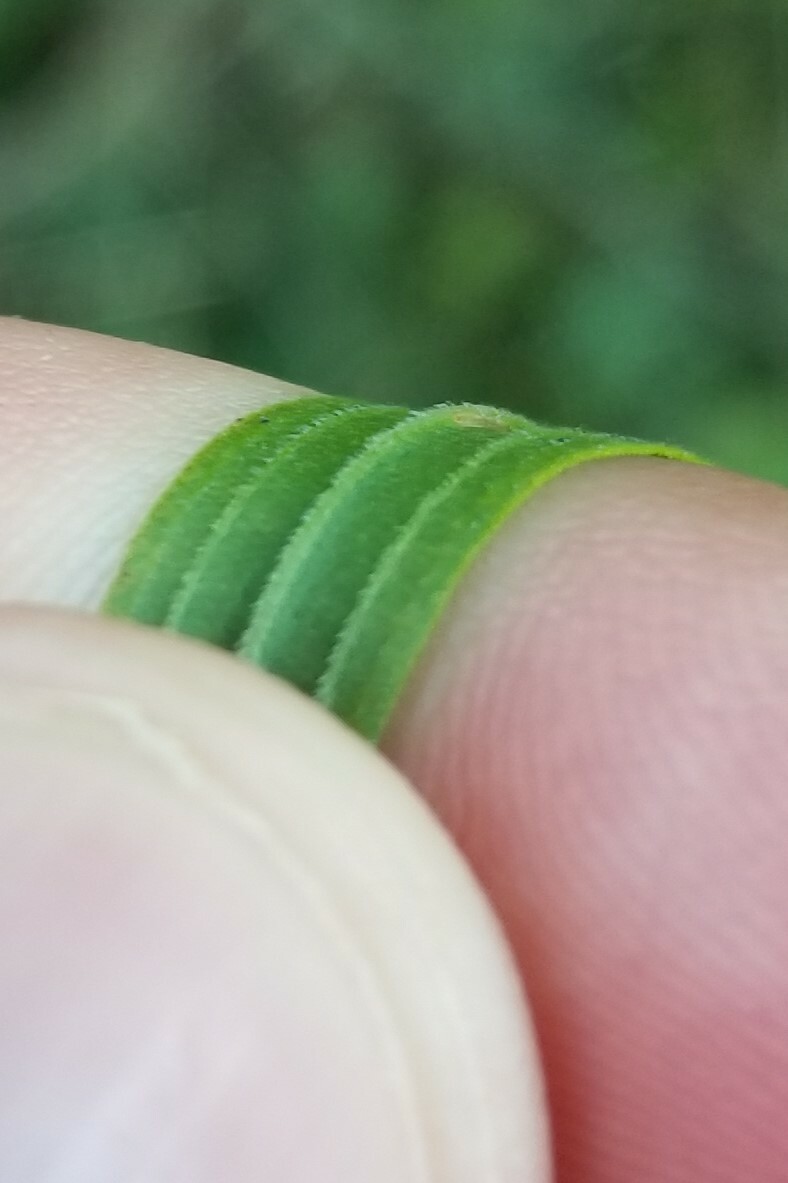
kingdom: Plantae
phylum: Tracheophyta
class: Magnoliopsida
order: Asterales
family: Asteraceae
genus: Euthamia
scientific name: Euthamia graminifolia
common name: Common goldentop
